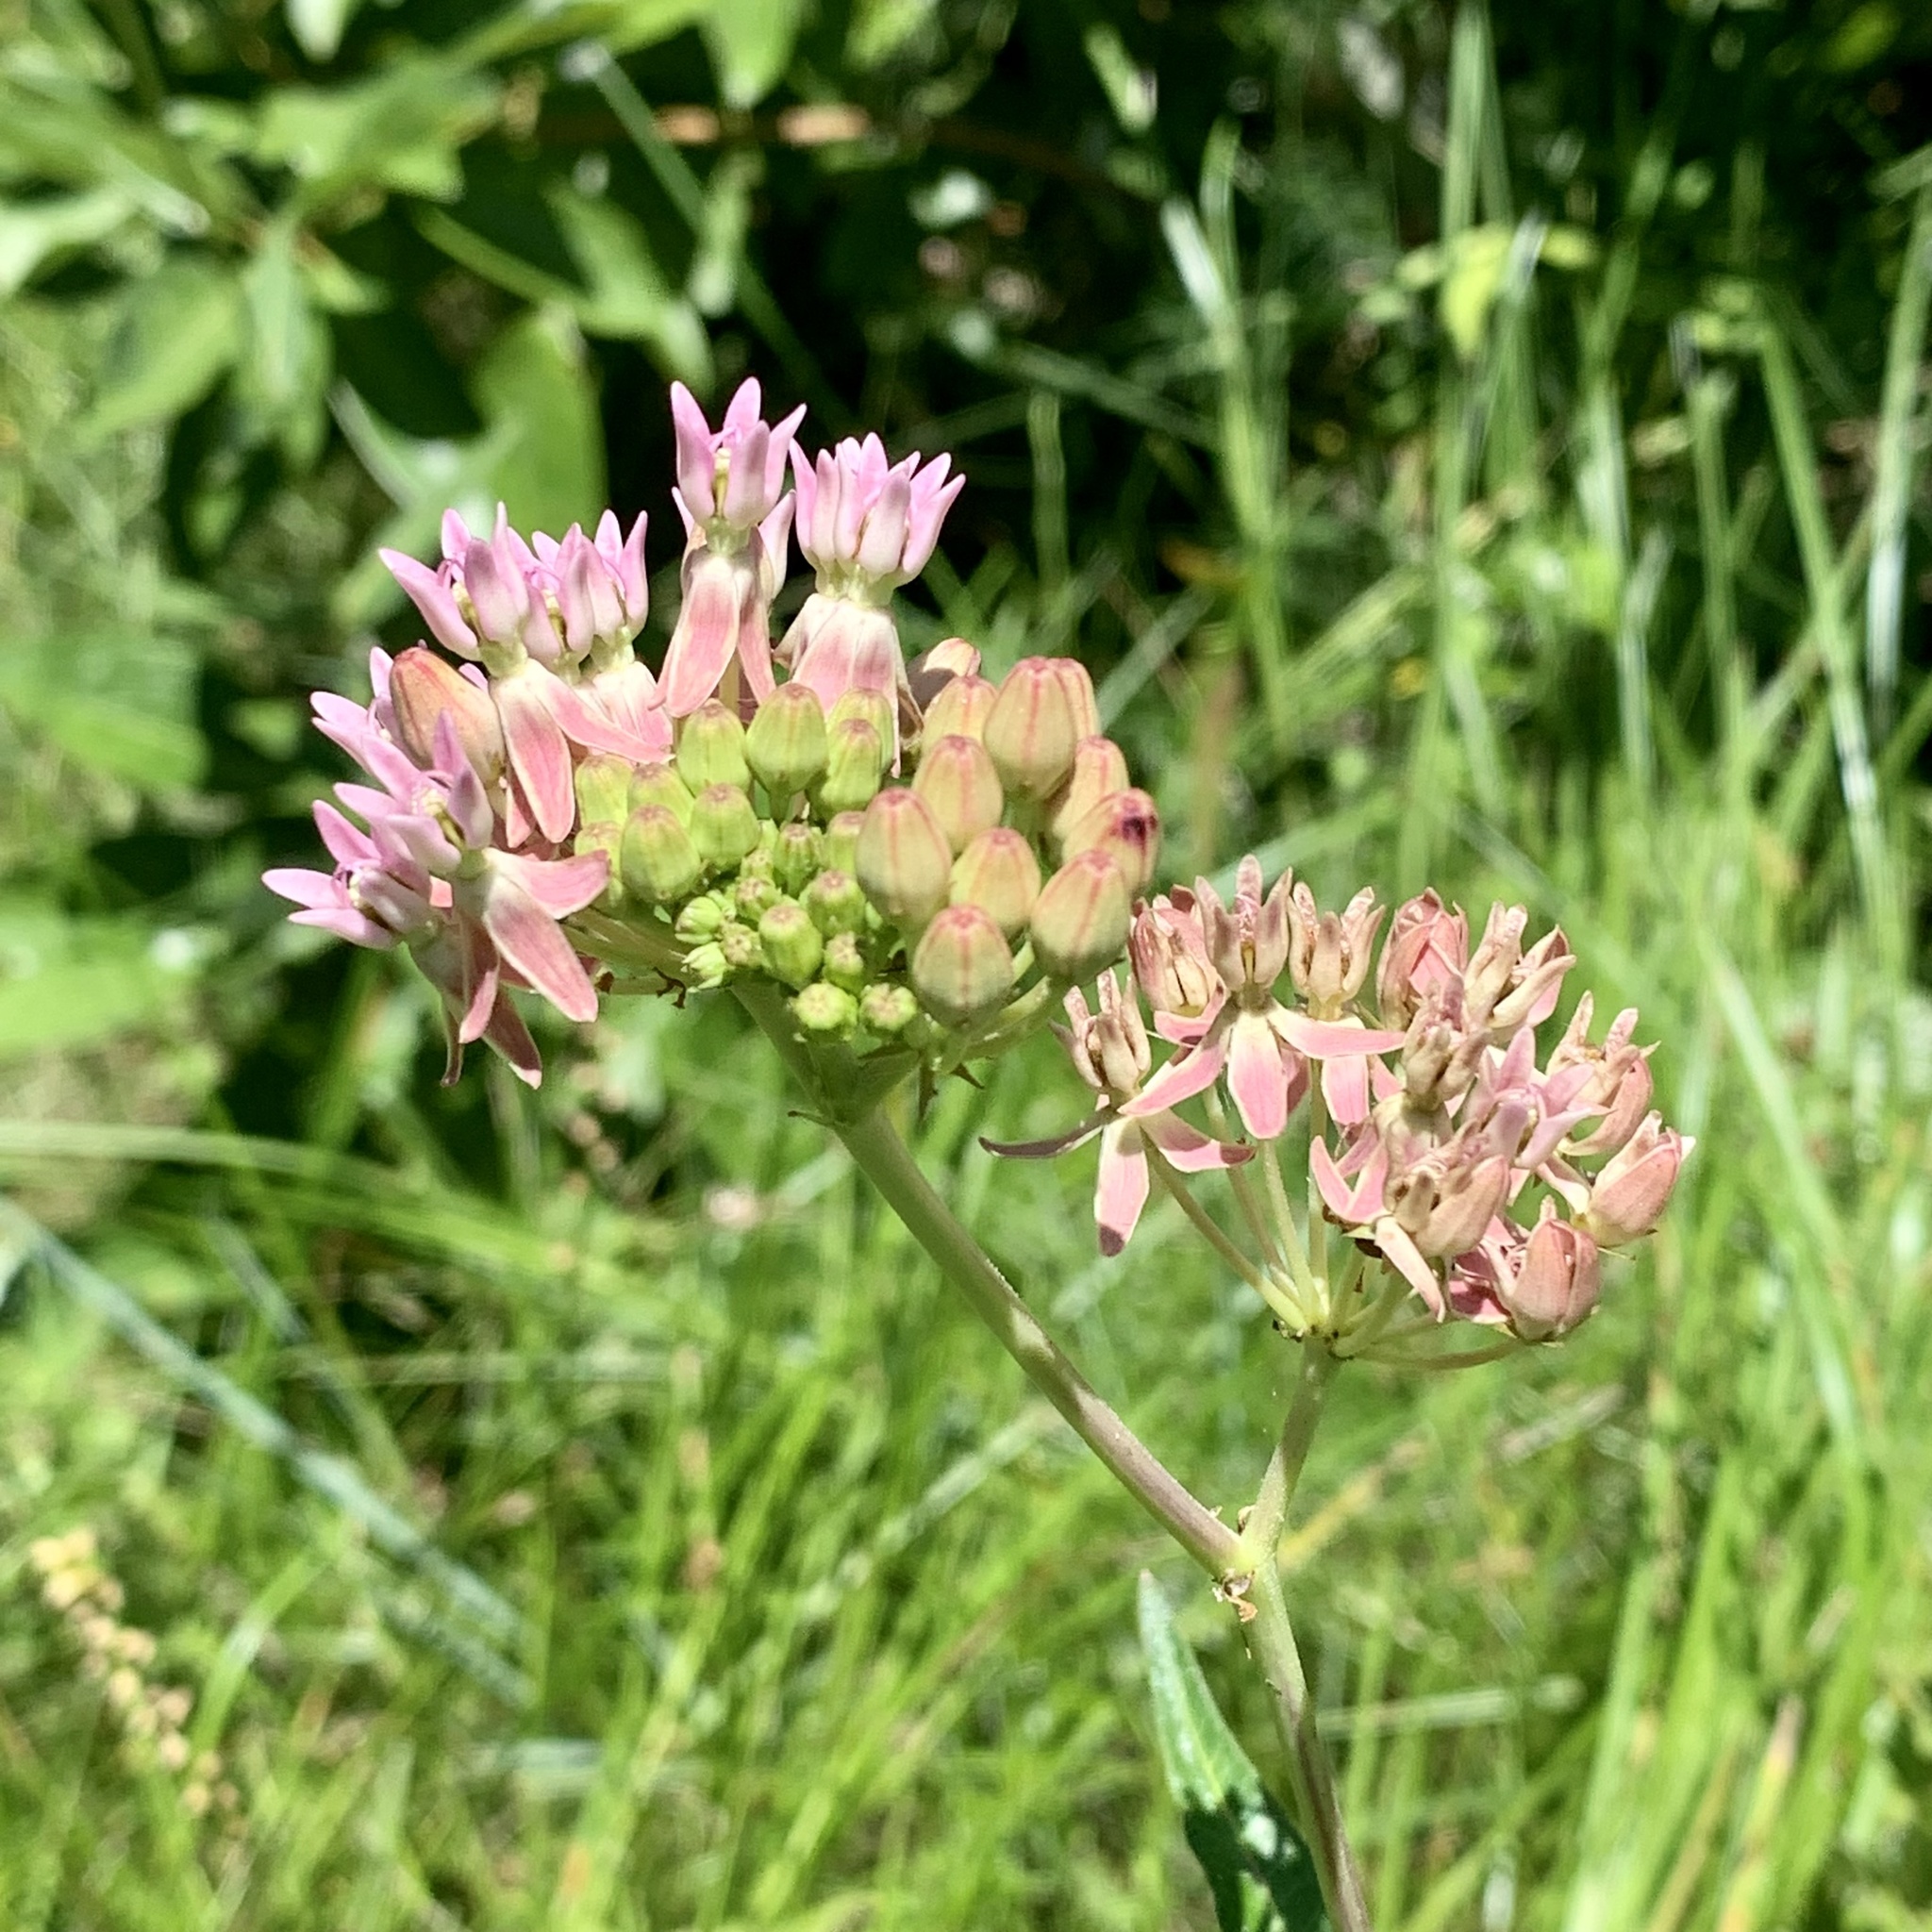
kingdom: Plantae
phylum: Tracheophyta
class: Magnoliopsida
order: Gentianales
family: Apocynaceae
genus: Asclepias
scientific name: Asclepias rubra
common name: Red milkweed
